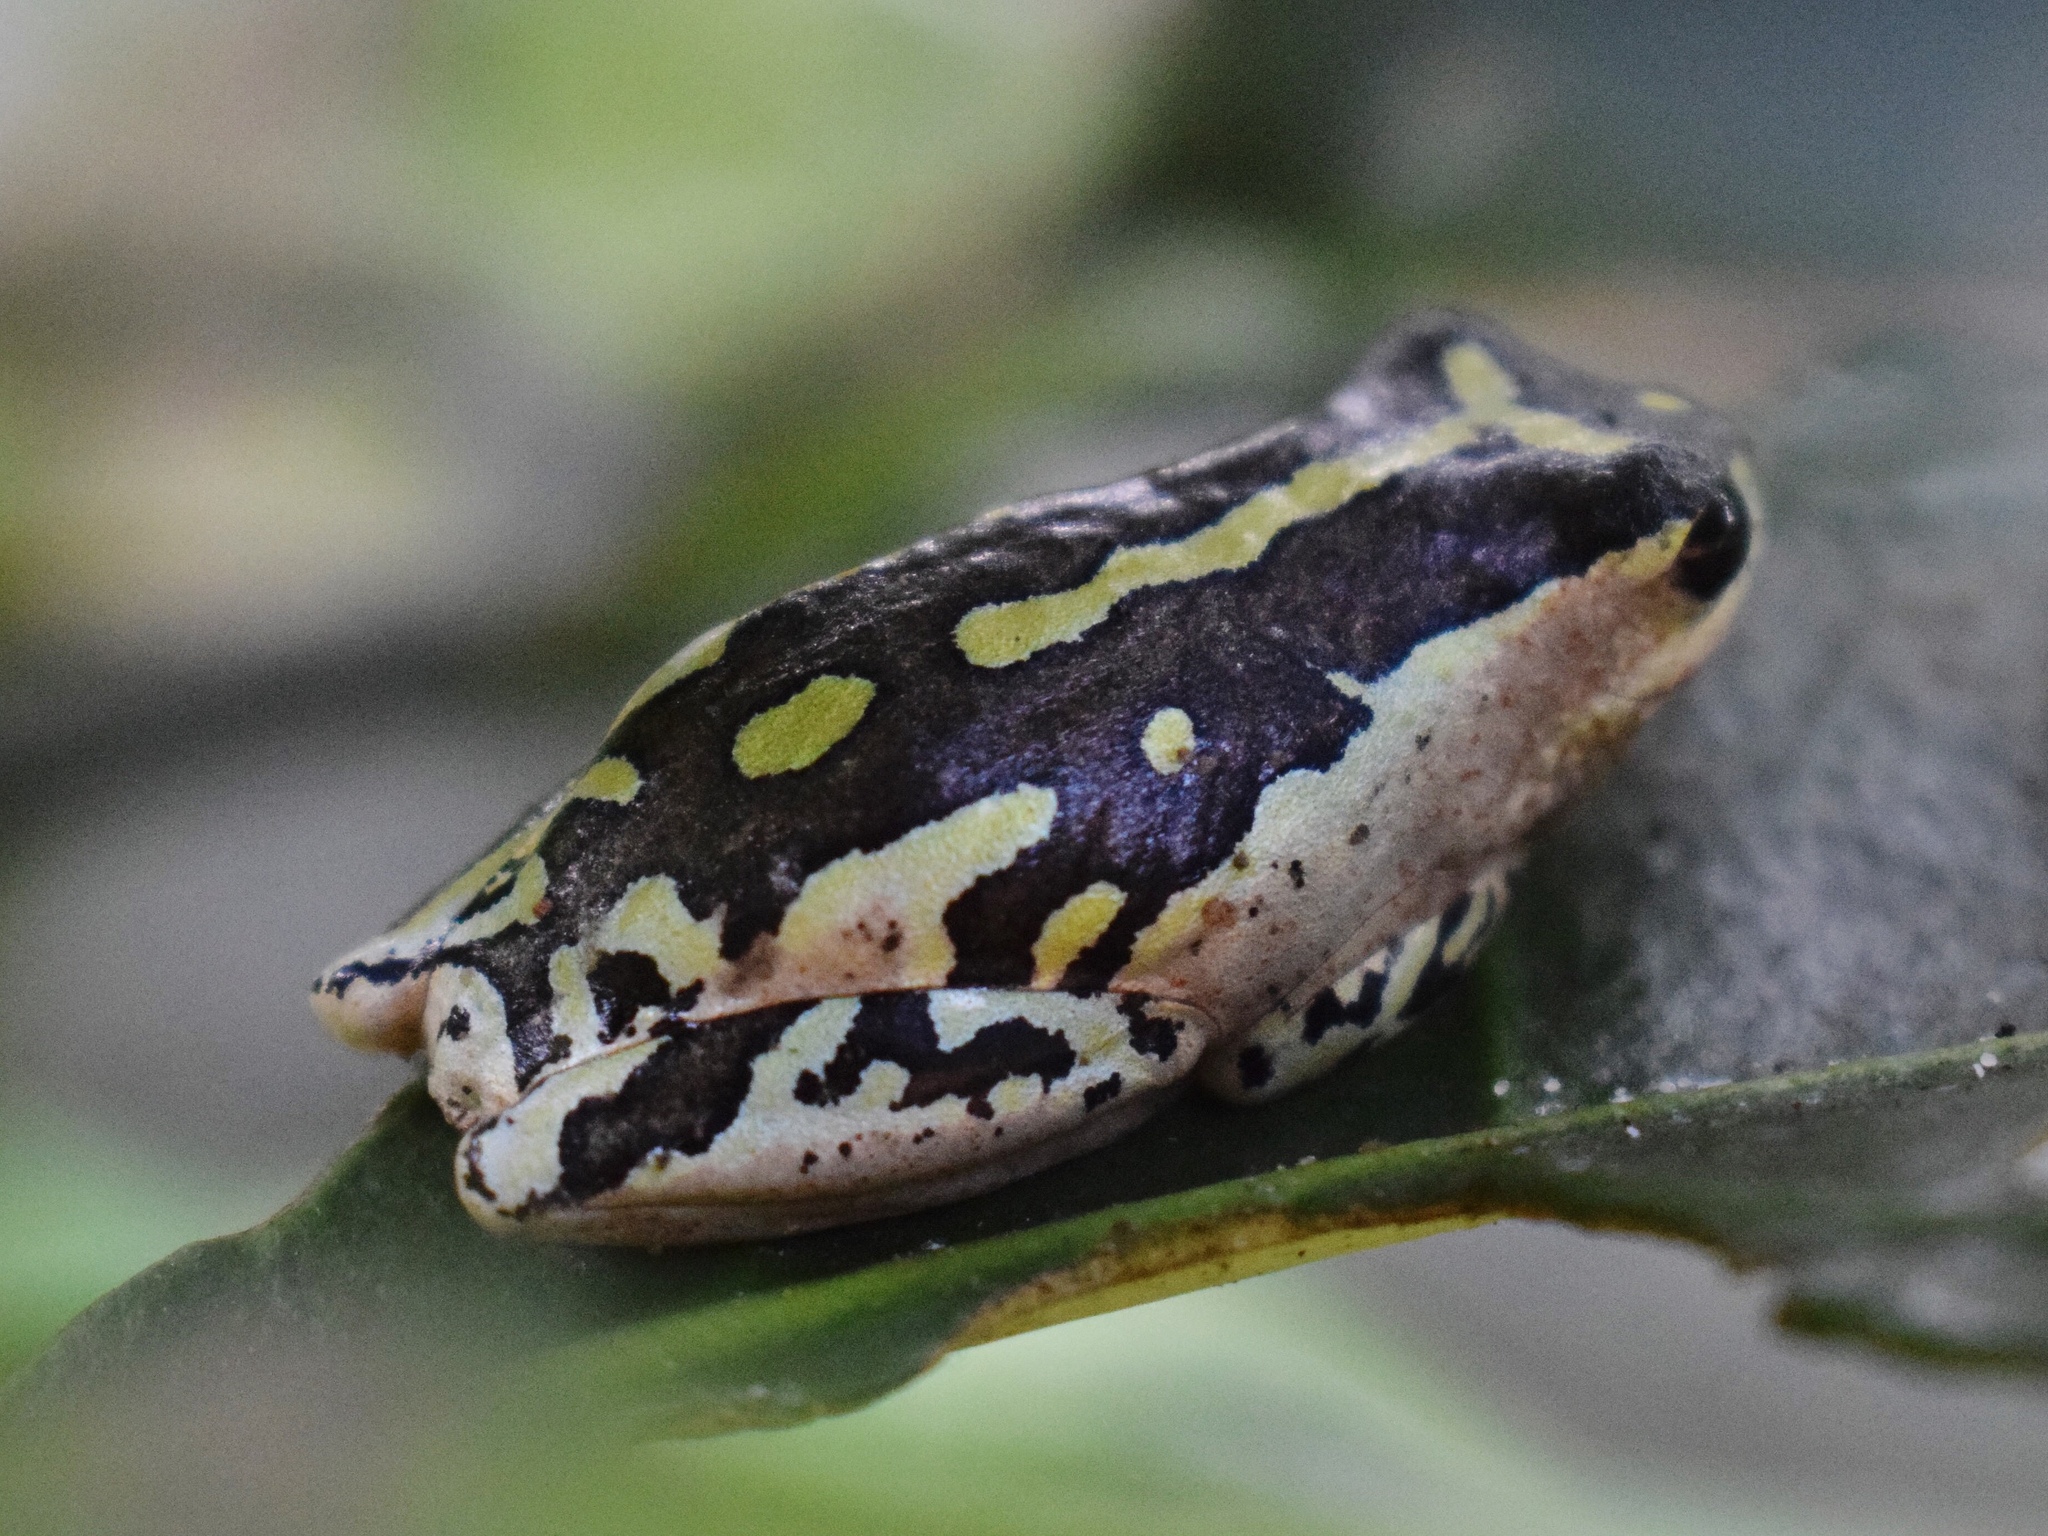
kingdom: Animalia
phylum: Chordata
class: Amphibia
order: Anura
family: Hyperoliidae
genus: Hyperolius
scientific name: Hyperolius marmoratus
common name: Painted reed frog
